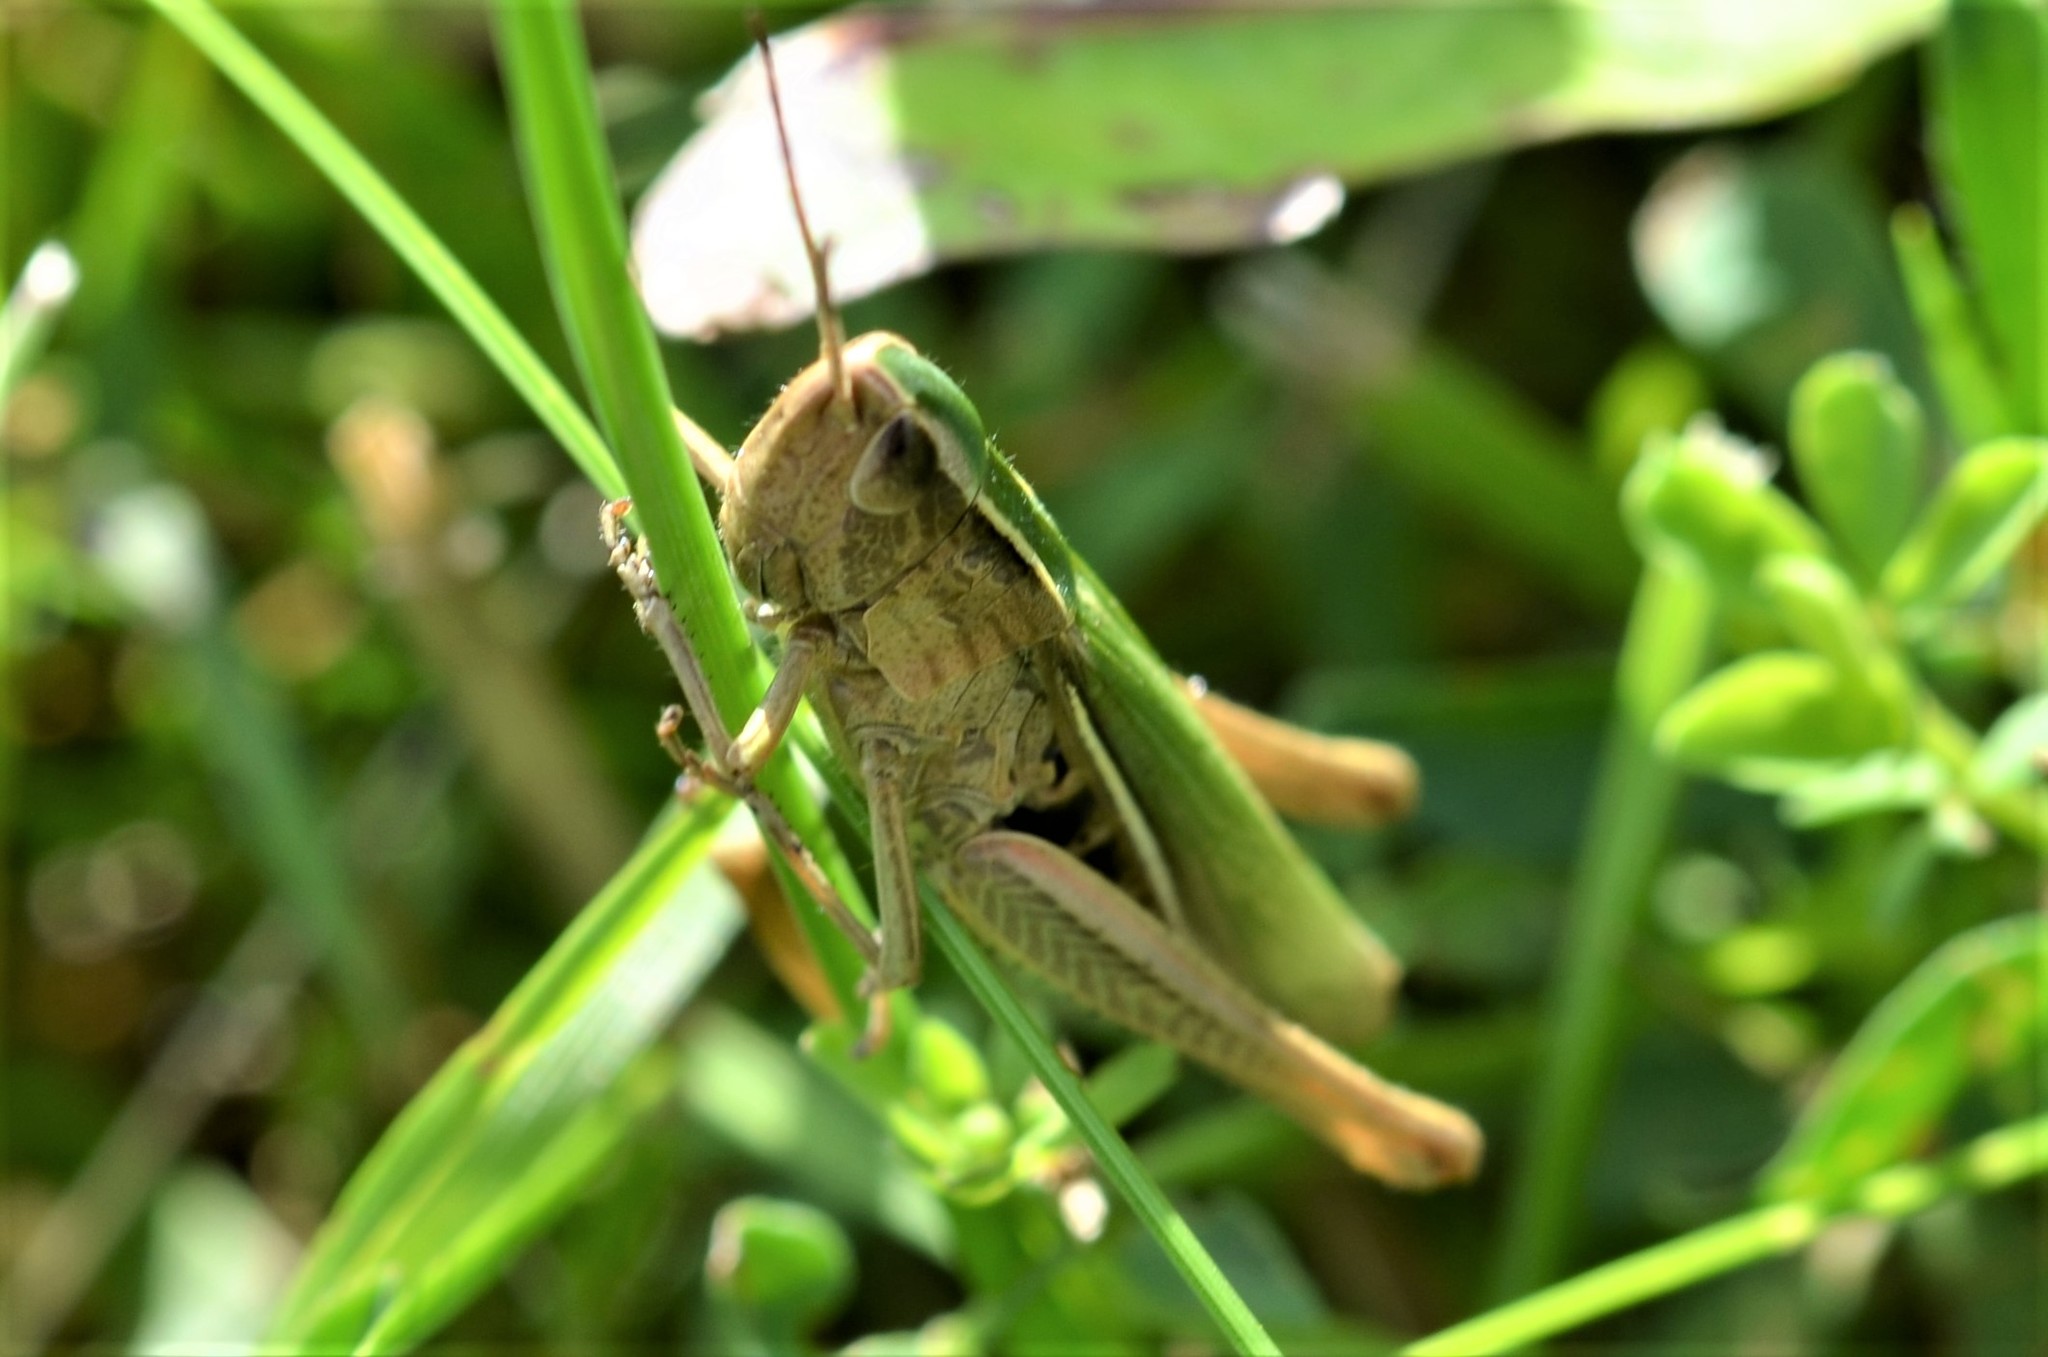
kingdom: Animalia
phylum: Arthropoda
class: Insecta
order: Orthoptera
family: Acrididae
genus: Chorthippus
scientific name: Chorthippus albomarginatus
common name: Lesser marsh grasshopper
